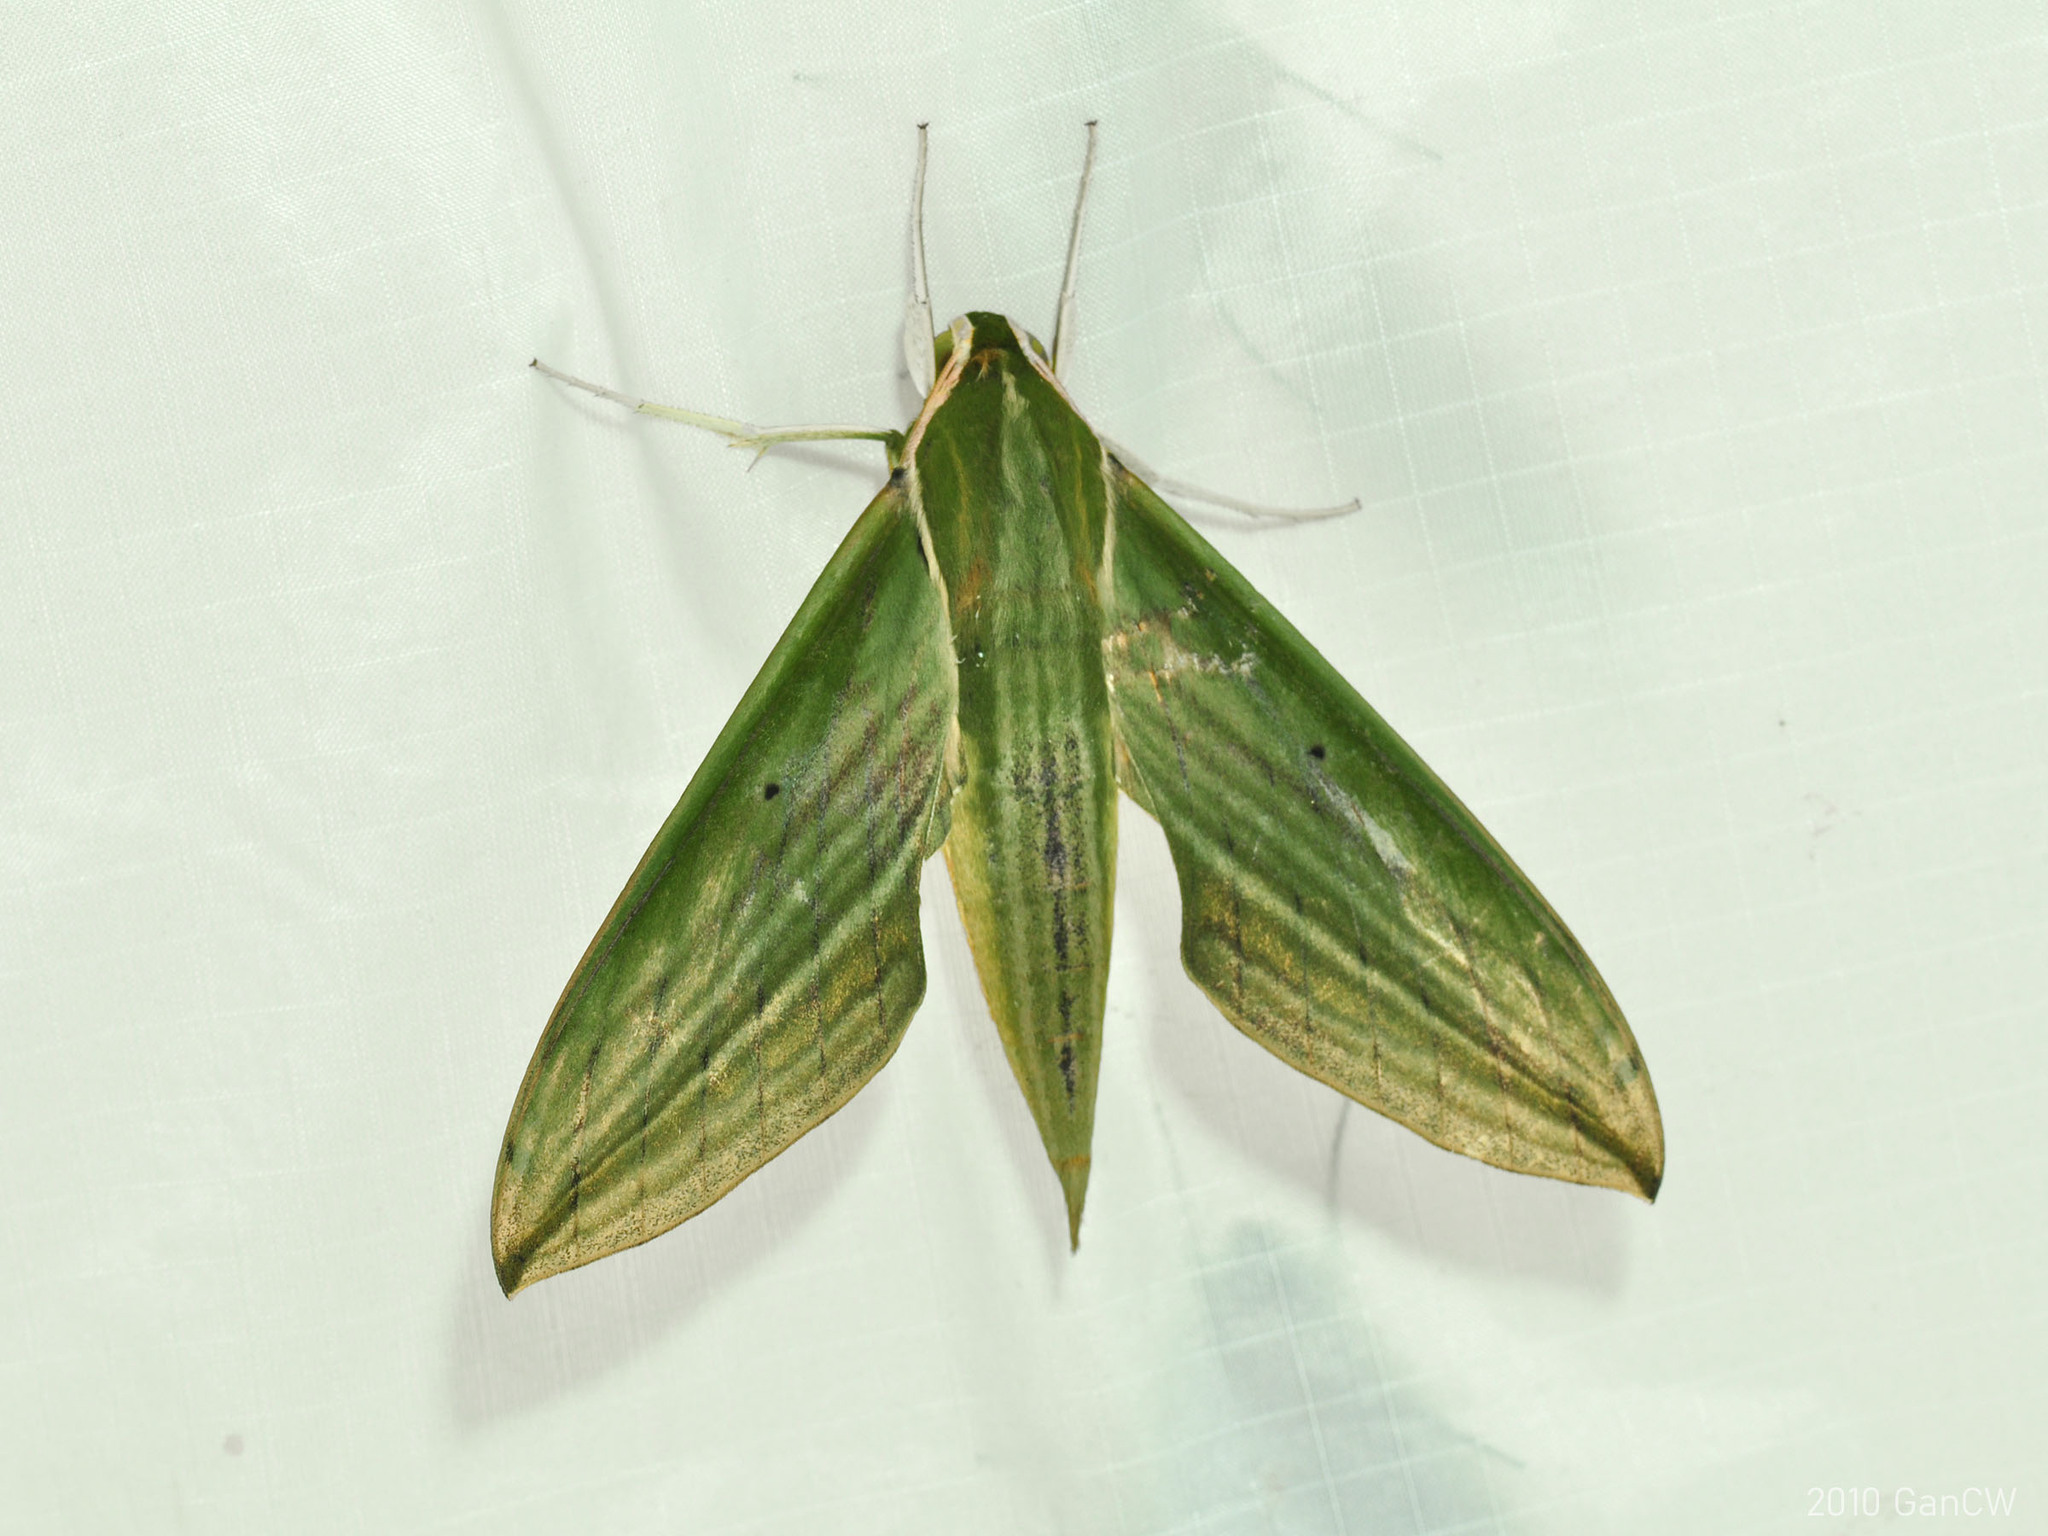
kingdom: Animalia
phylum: Arthropoda
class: Insecta
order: Lepidoptera
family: Sphingidae
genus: Cechetra
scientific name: Cechetra subangustata
